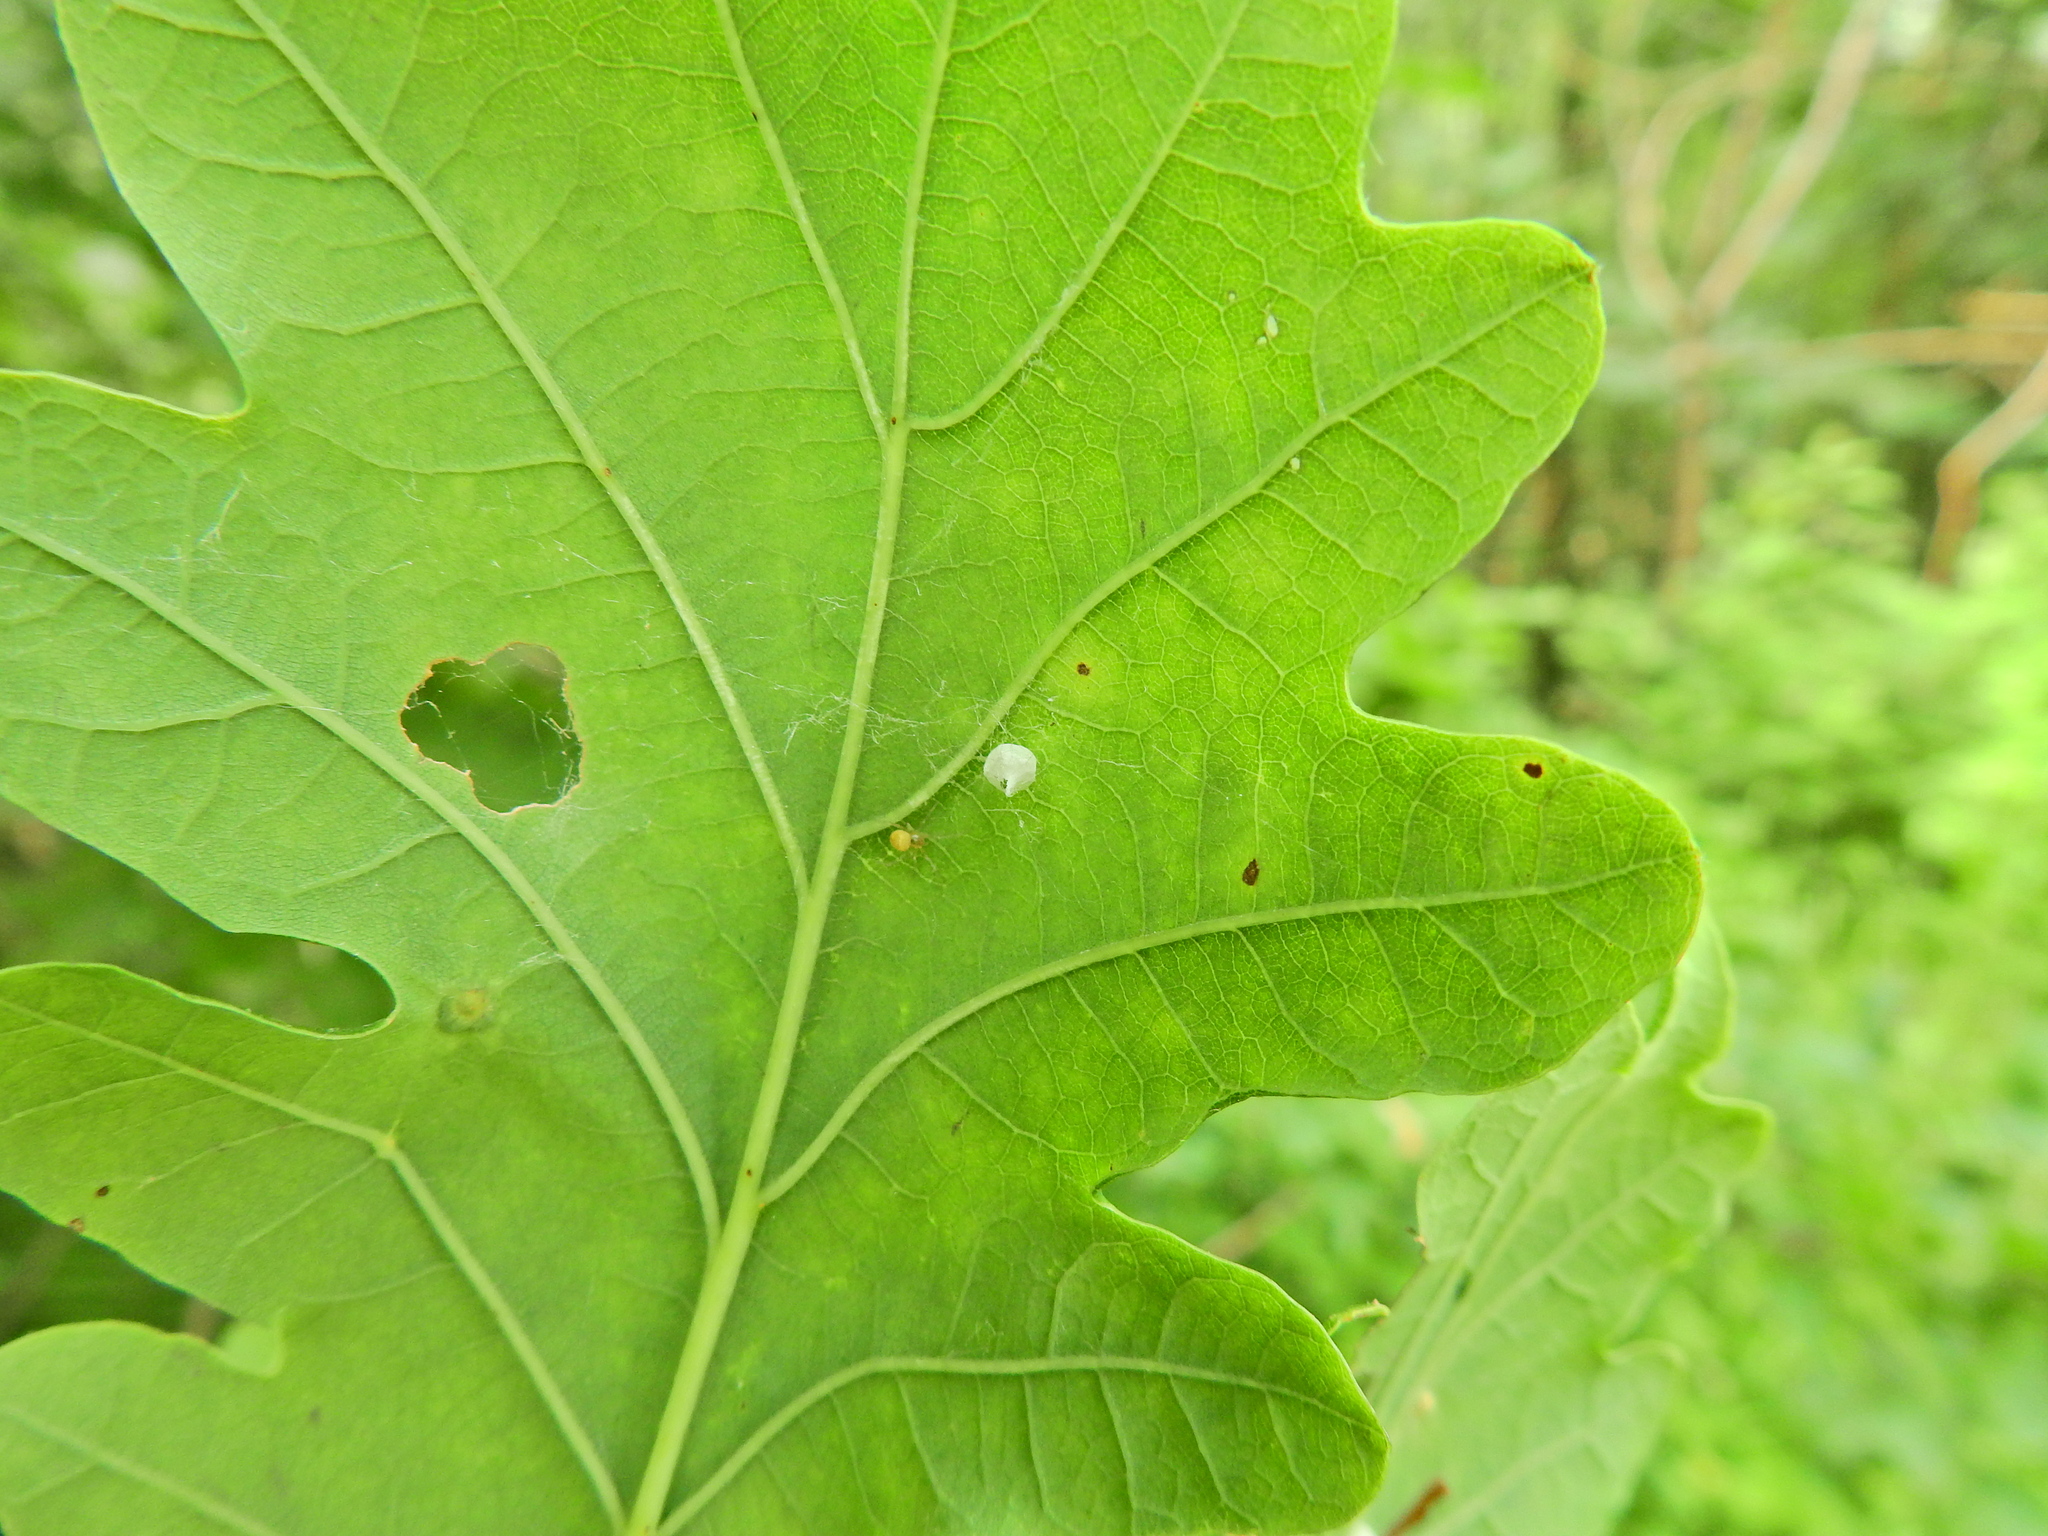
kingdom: Animalia
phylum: Arthropoda
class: Arachnida
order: Araneae
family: Theridiidae
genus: Paidiscura
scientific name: Paidiscura pallens
